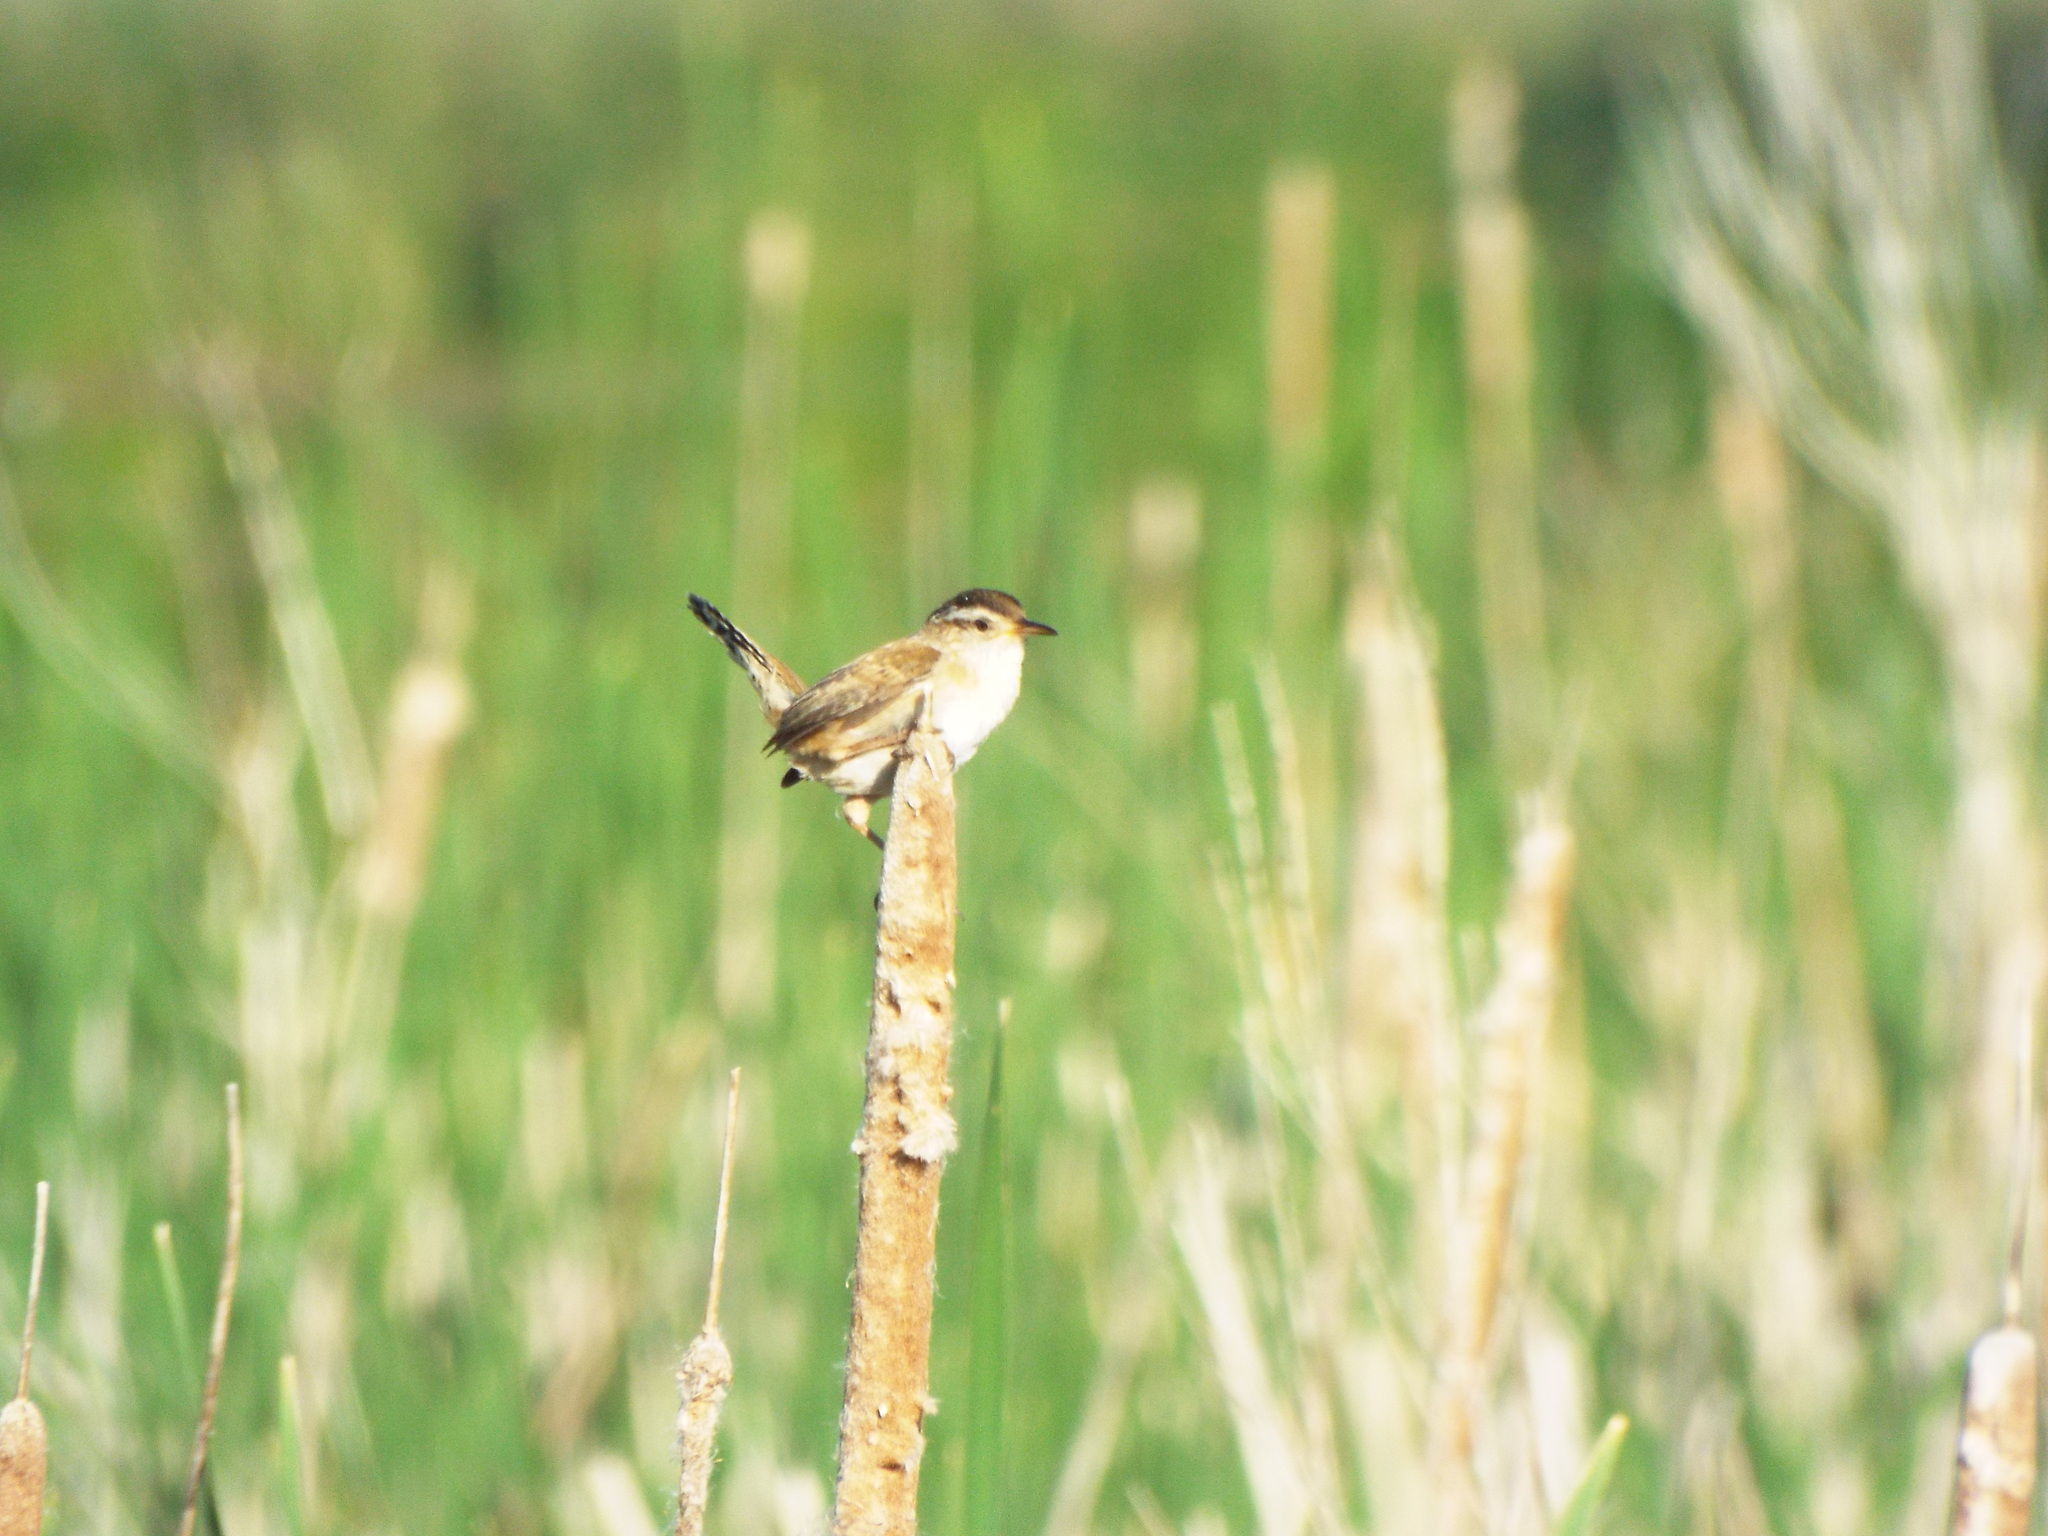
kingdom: Animalia
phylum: Chordata
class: Aves
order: Passeriformes
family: Troglodytidae
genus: Cistothorus
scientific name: Cistothorus palustris
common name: Marsh wren
